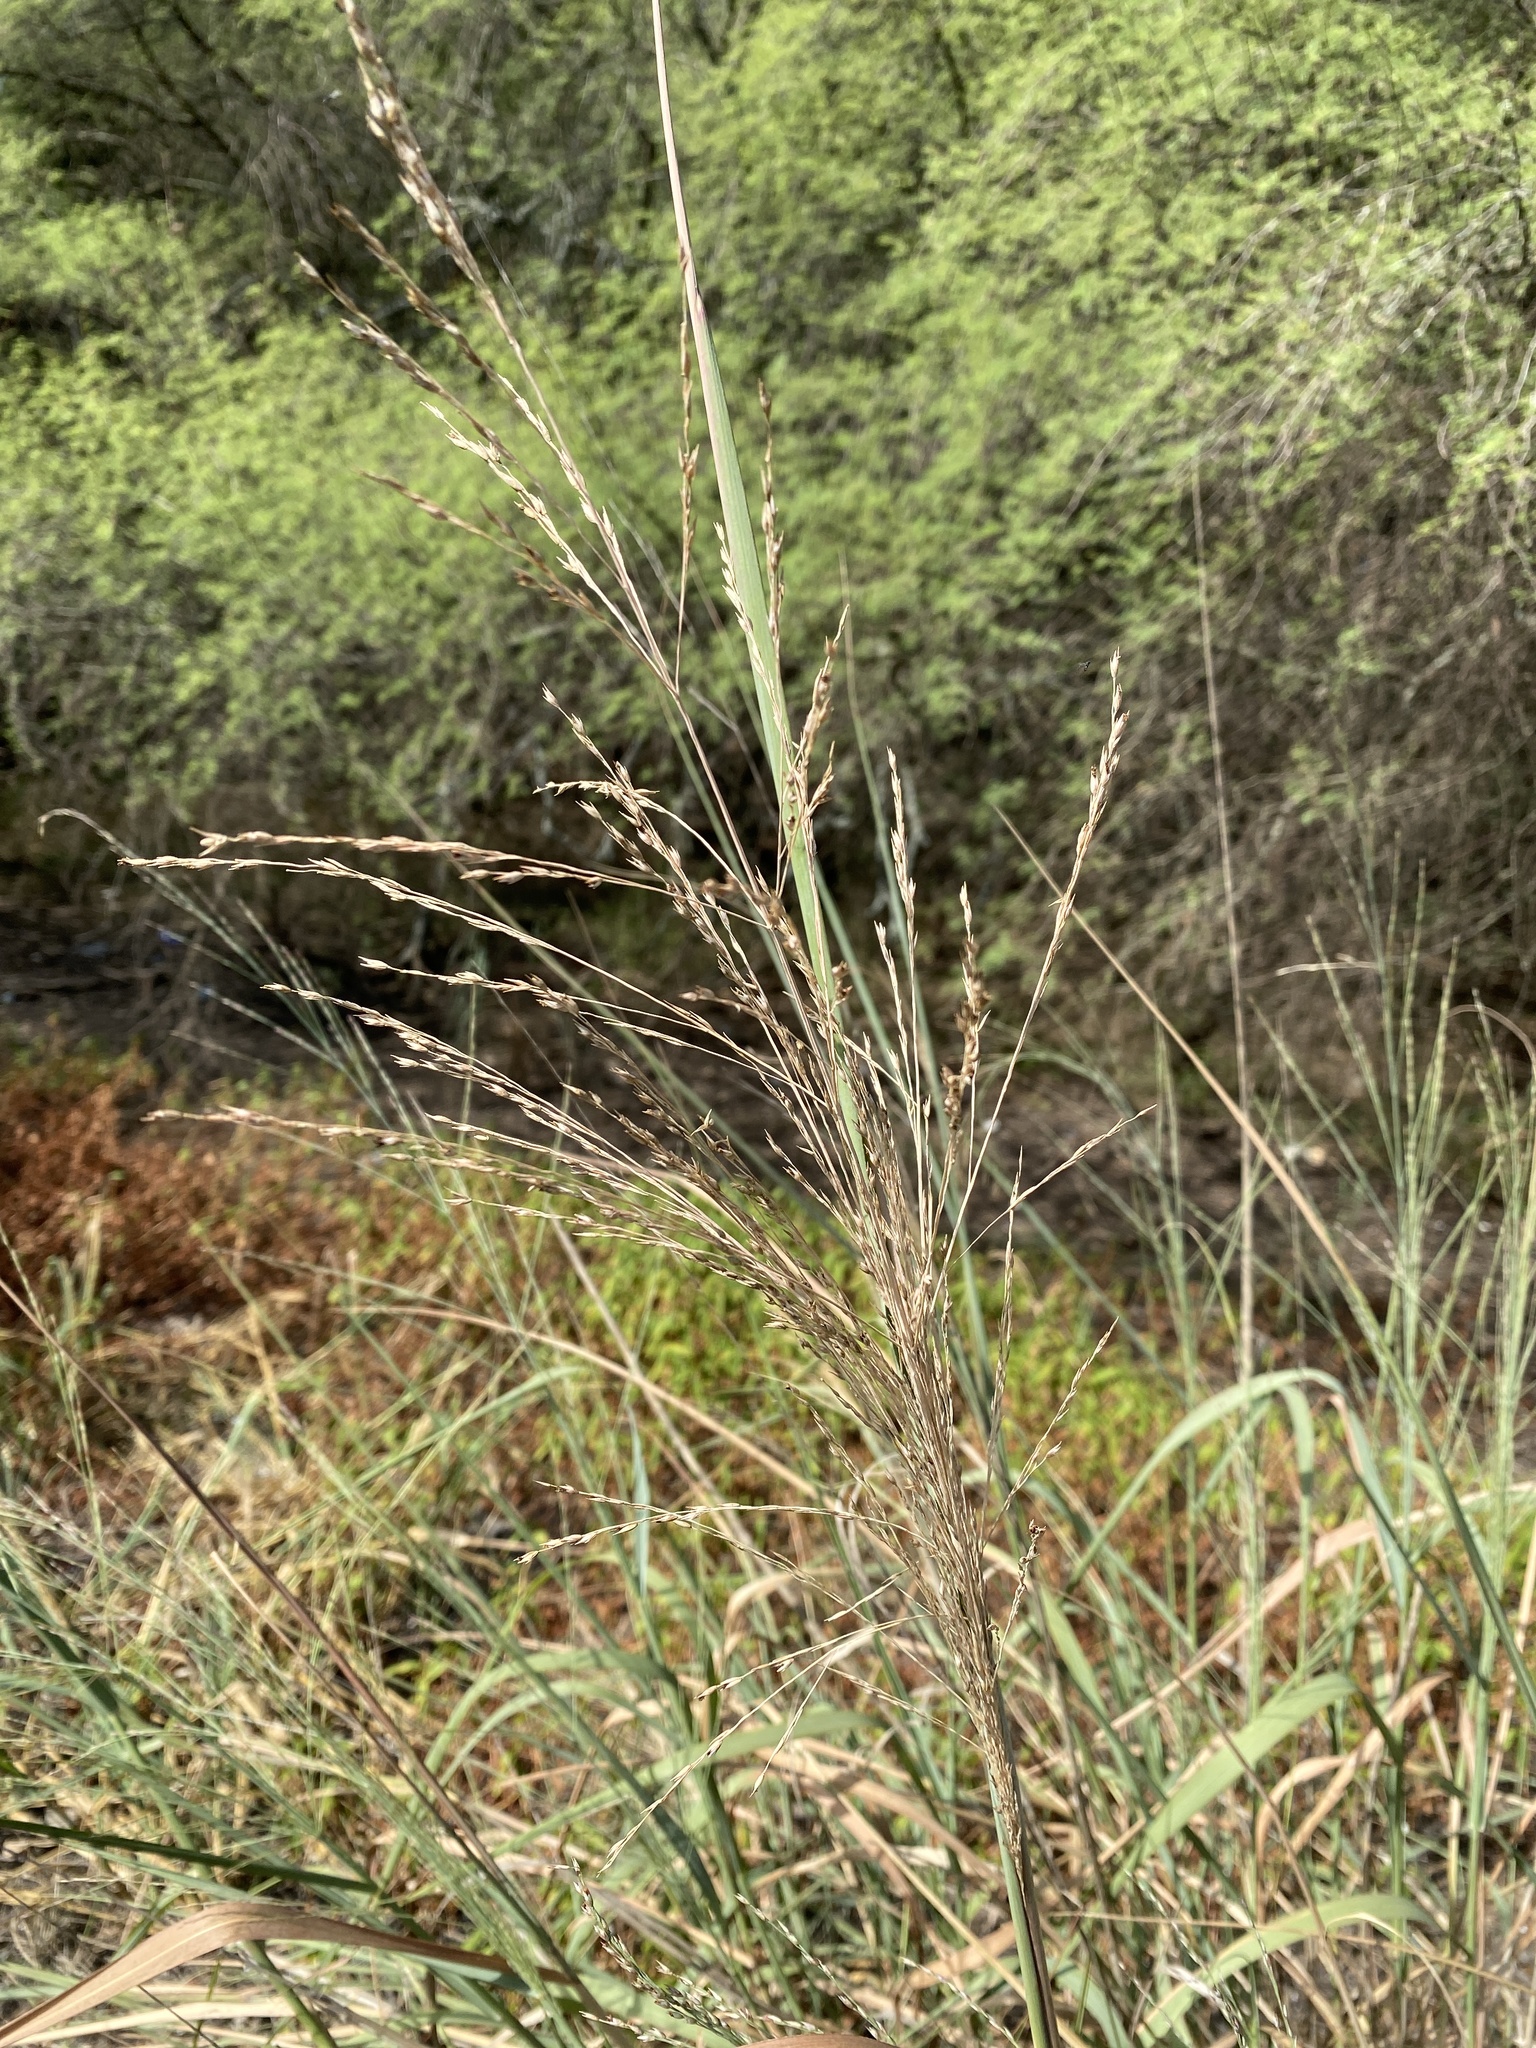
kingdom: Plantae
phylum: Tracheophyta
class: Liliopsida
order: Poales
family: Poaceae
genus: Panicum
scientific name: Panicum virgatum
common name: Switchgrass
